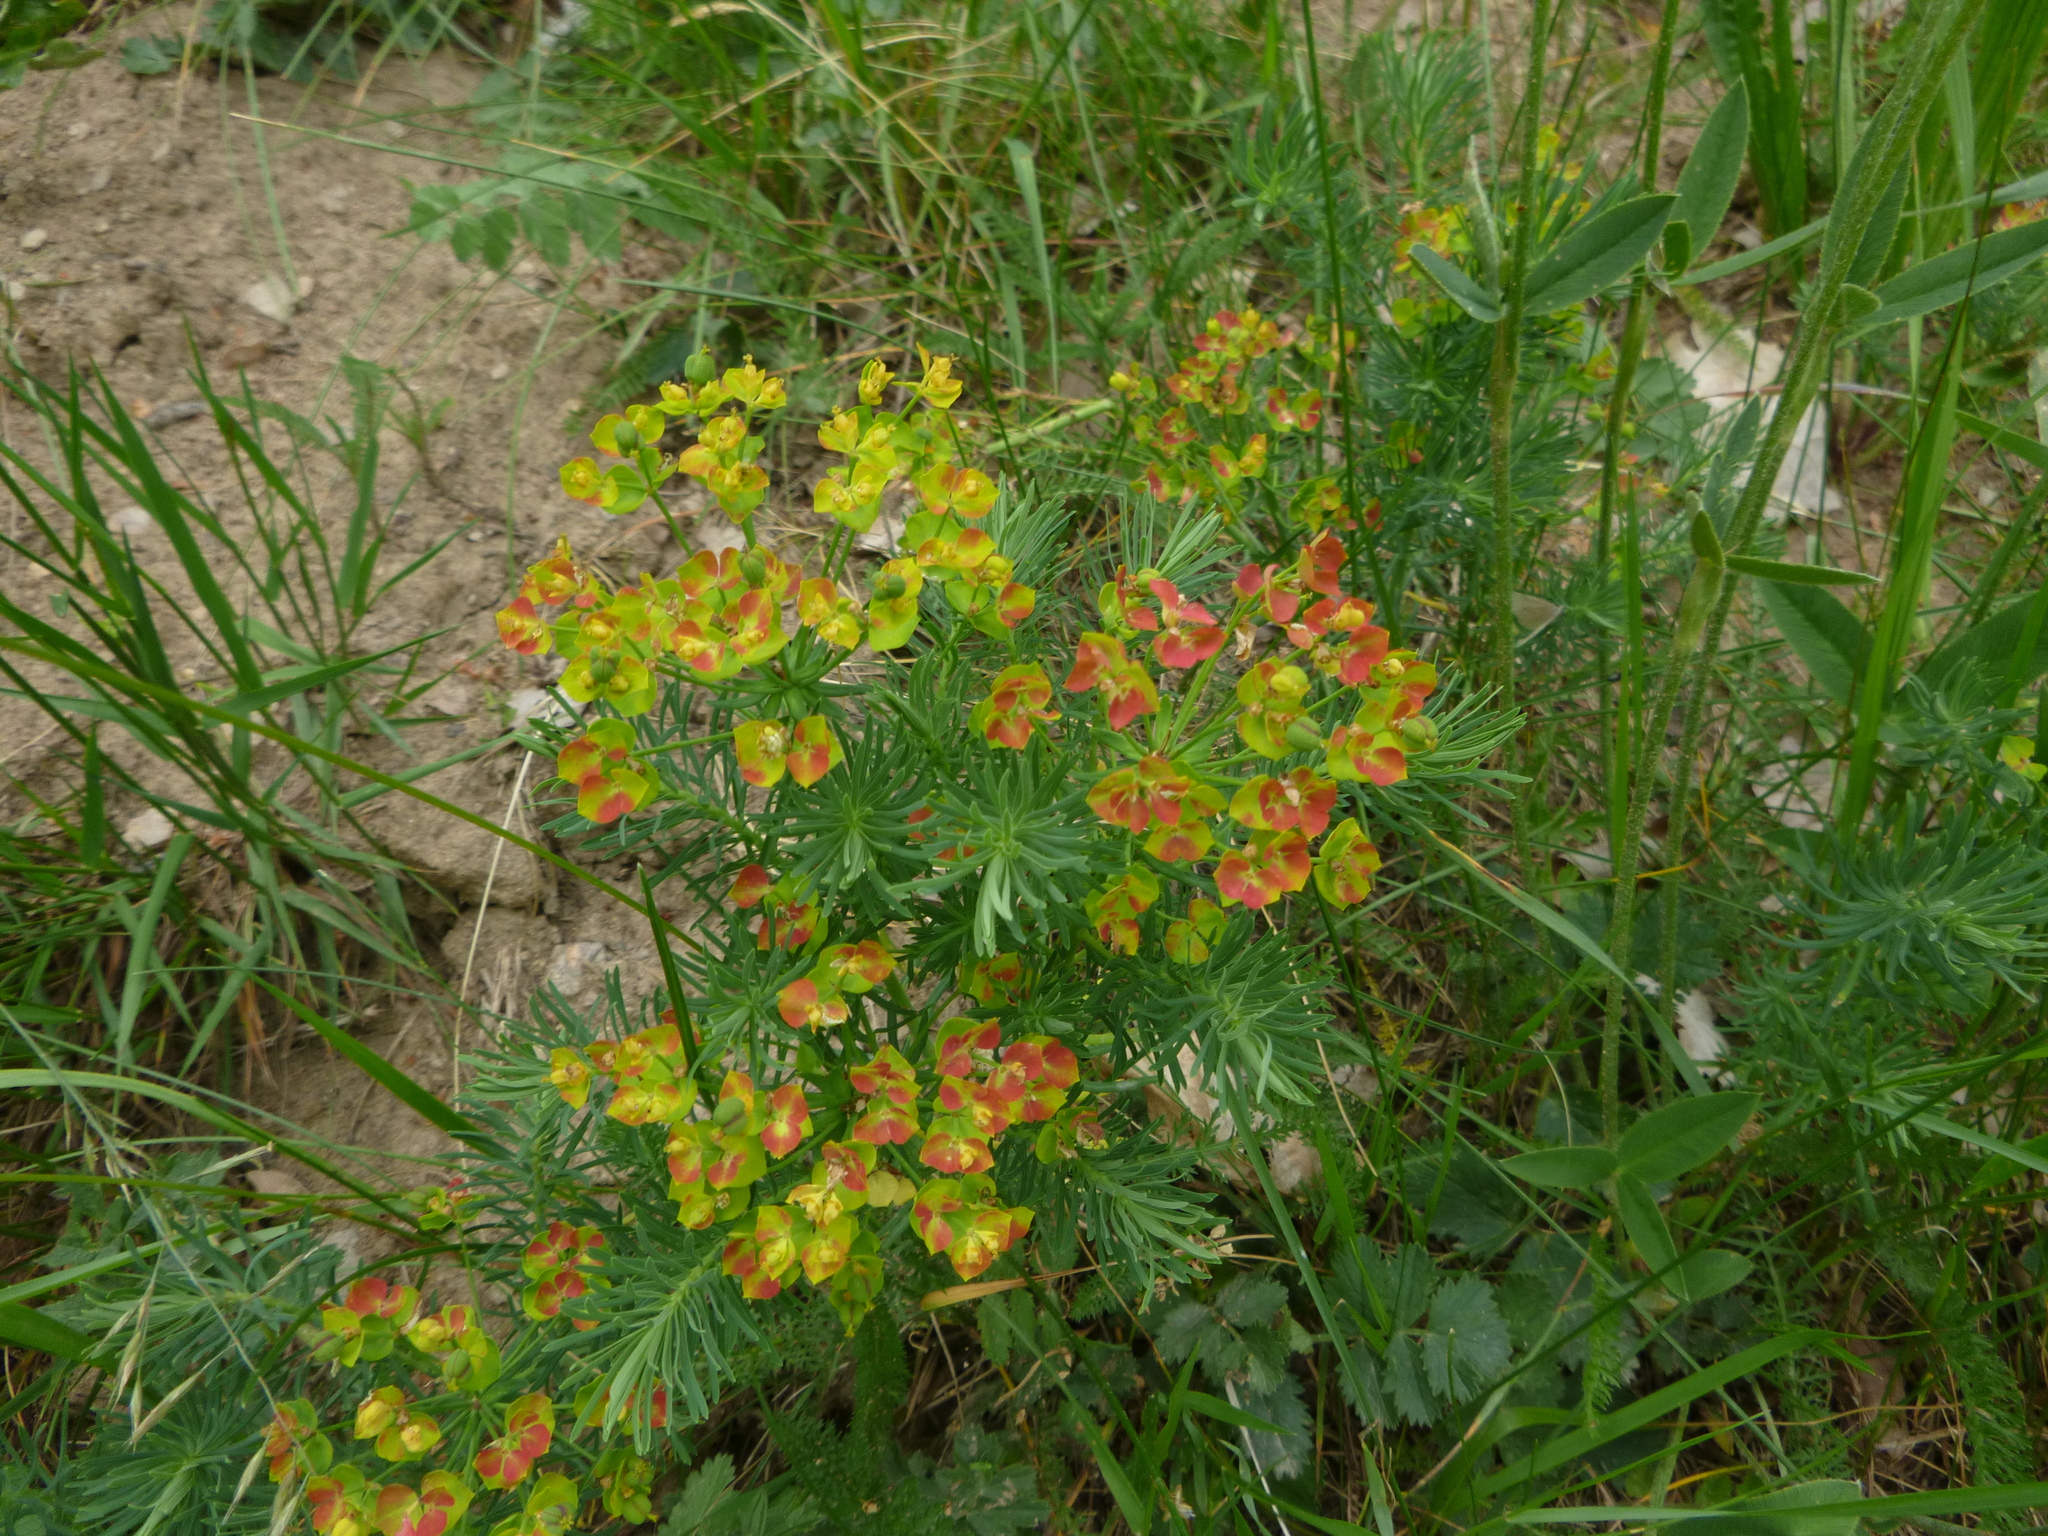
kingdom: Plantae
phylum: Tracheophyta
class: Magnoliopsida
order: Malpighiales
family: Euphorbiaceae
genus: Euphorbia
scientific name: Euphorbia cyparissias
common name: Cypress spurge
